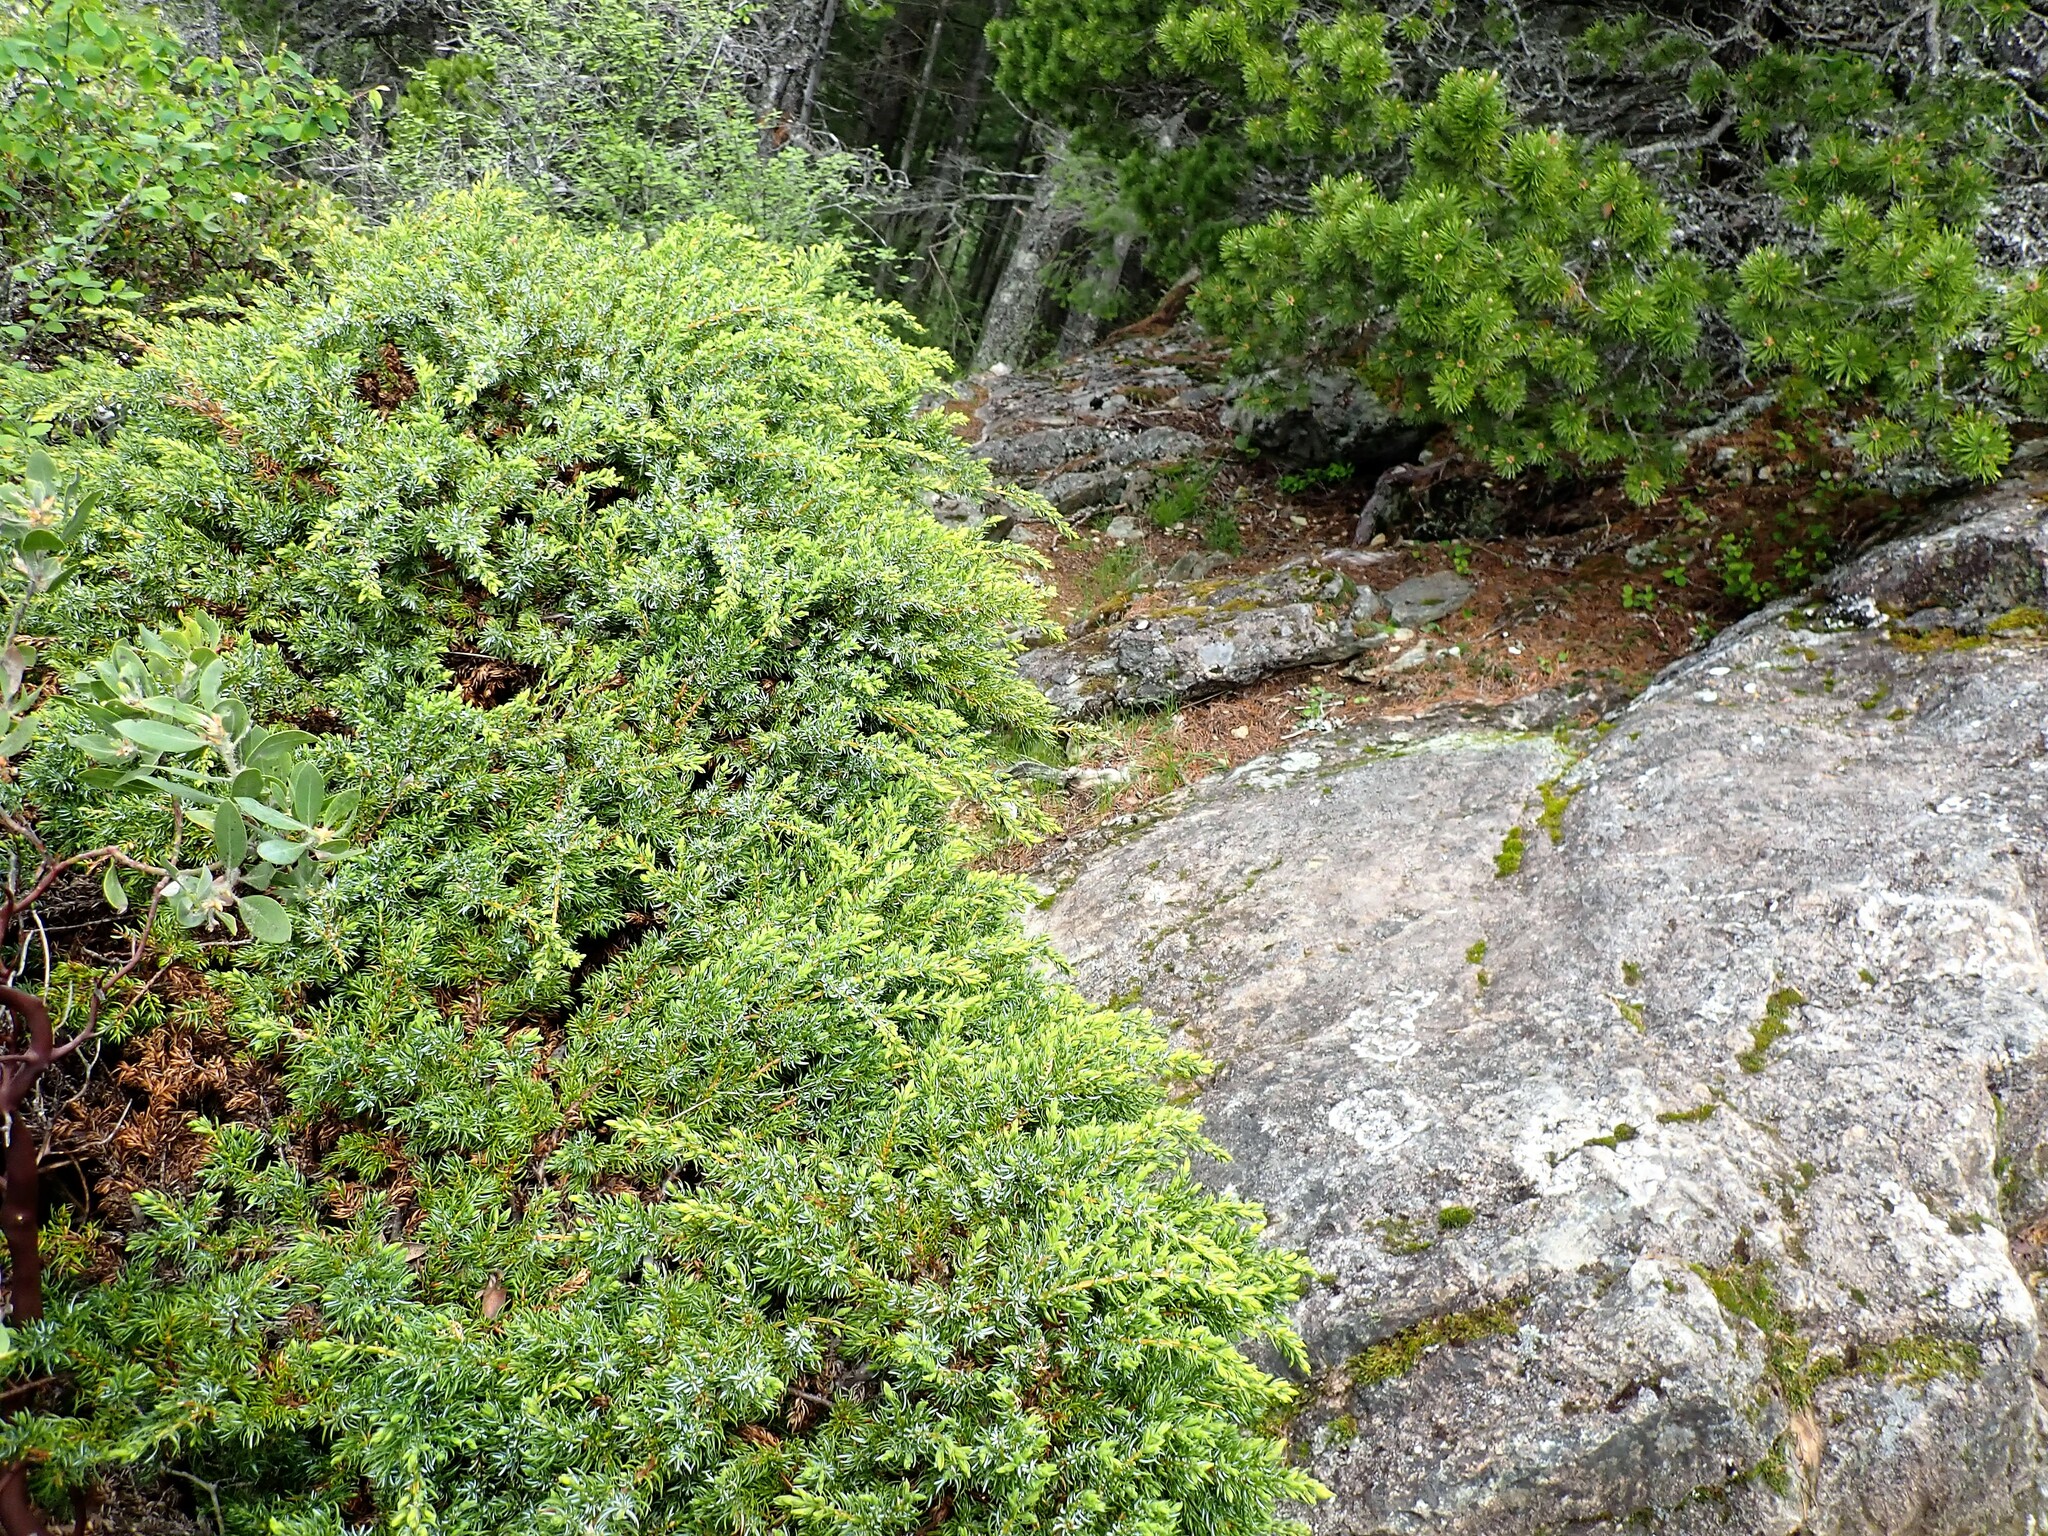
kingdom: Plantae
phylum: Tracheophyta
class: Pinopsida
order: Pinales
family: Cupressaceae
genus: Juniperus
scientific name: Juniperus communis
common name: Common juniper
